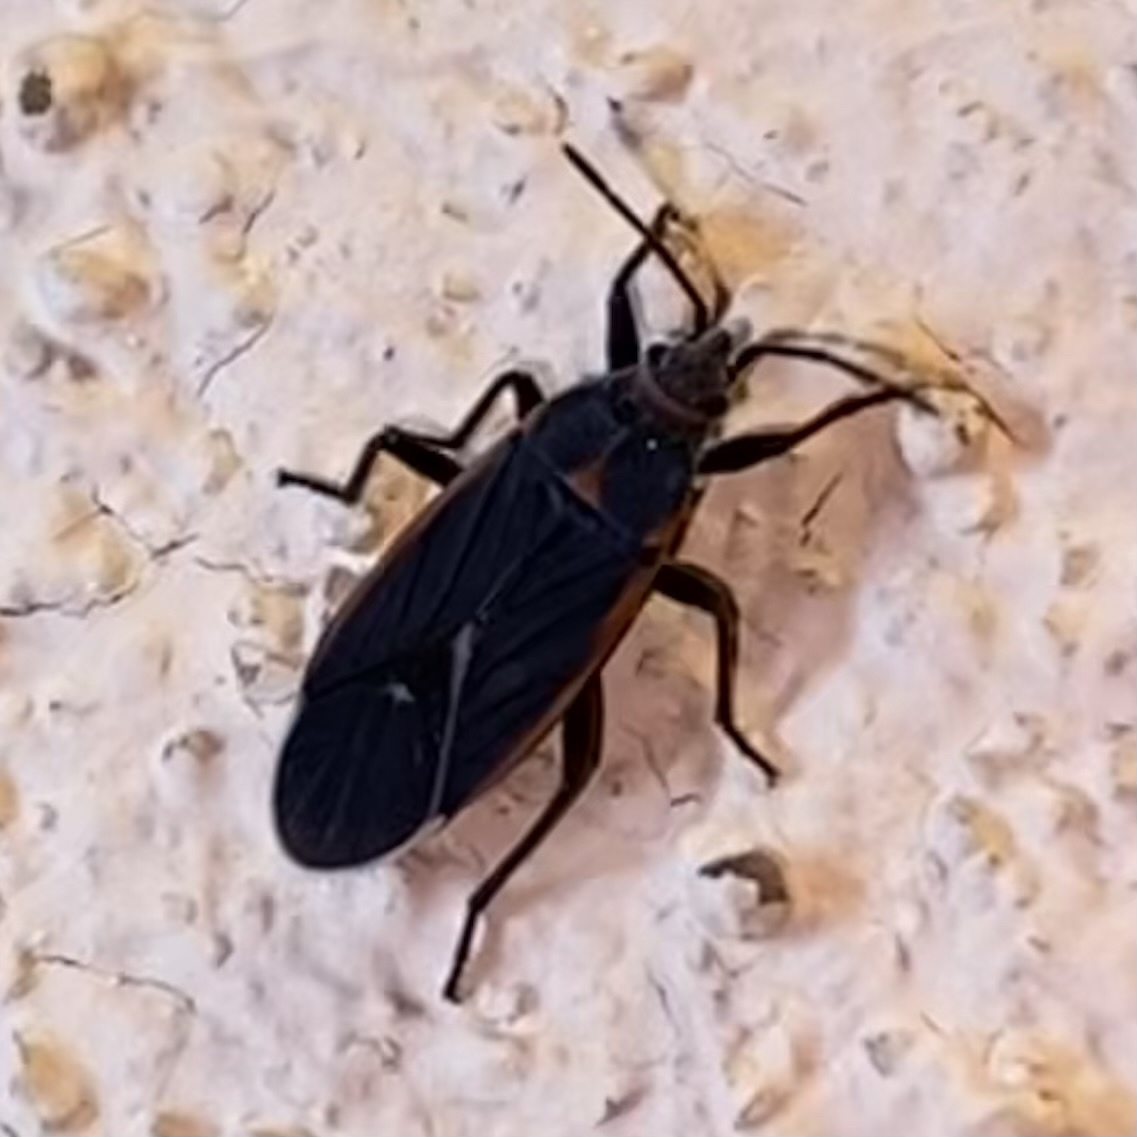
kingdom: Animalia
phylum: Arthropoda
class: Insecta
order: Hemiptera
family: Lygaeidae
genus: Melacoryphus
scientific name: Melacoryphus lateralis
